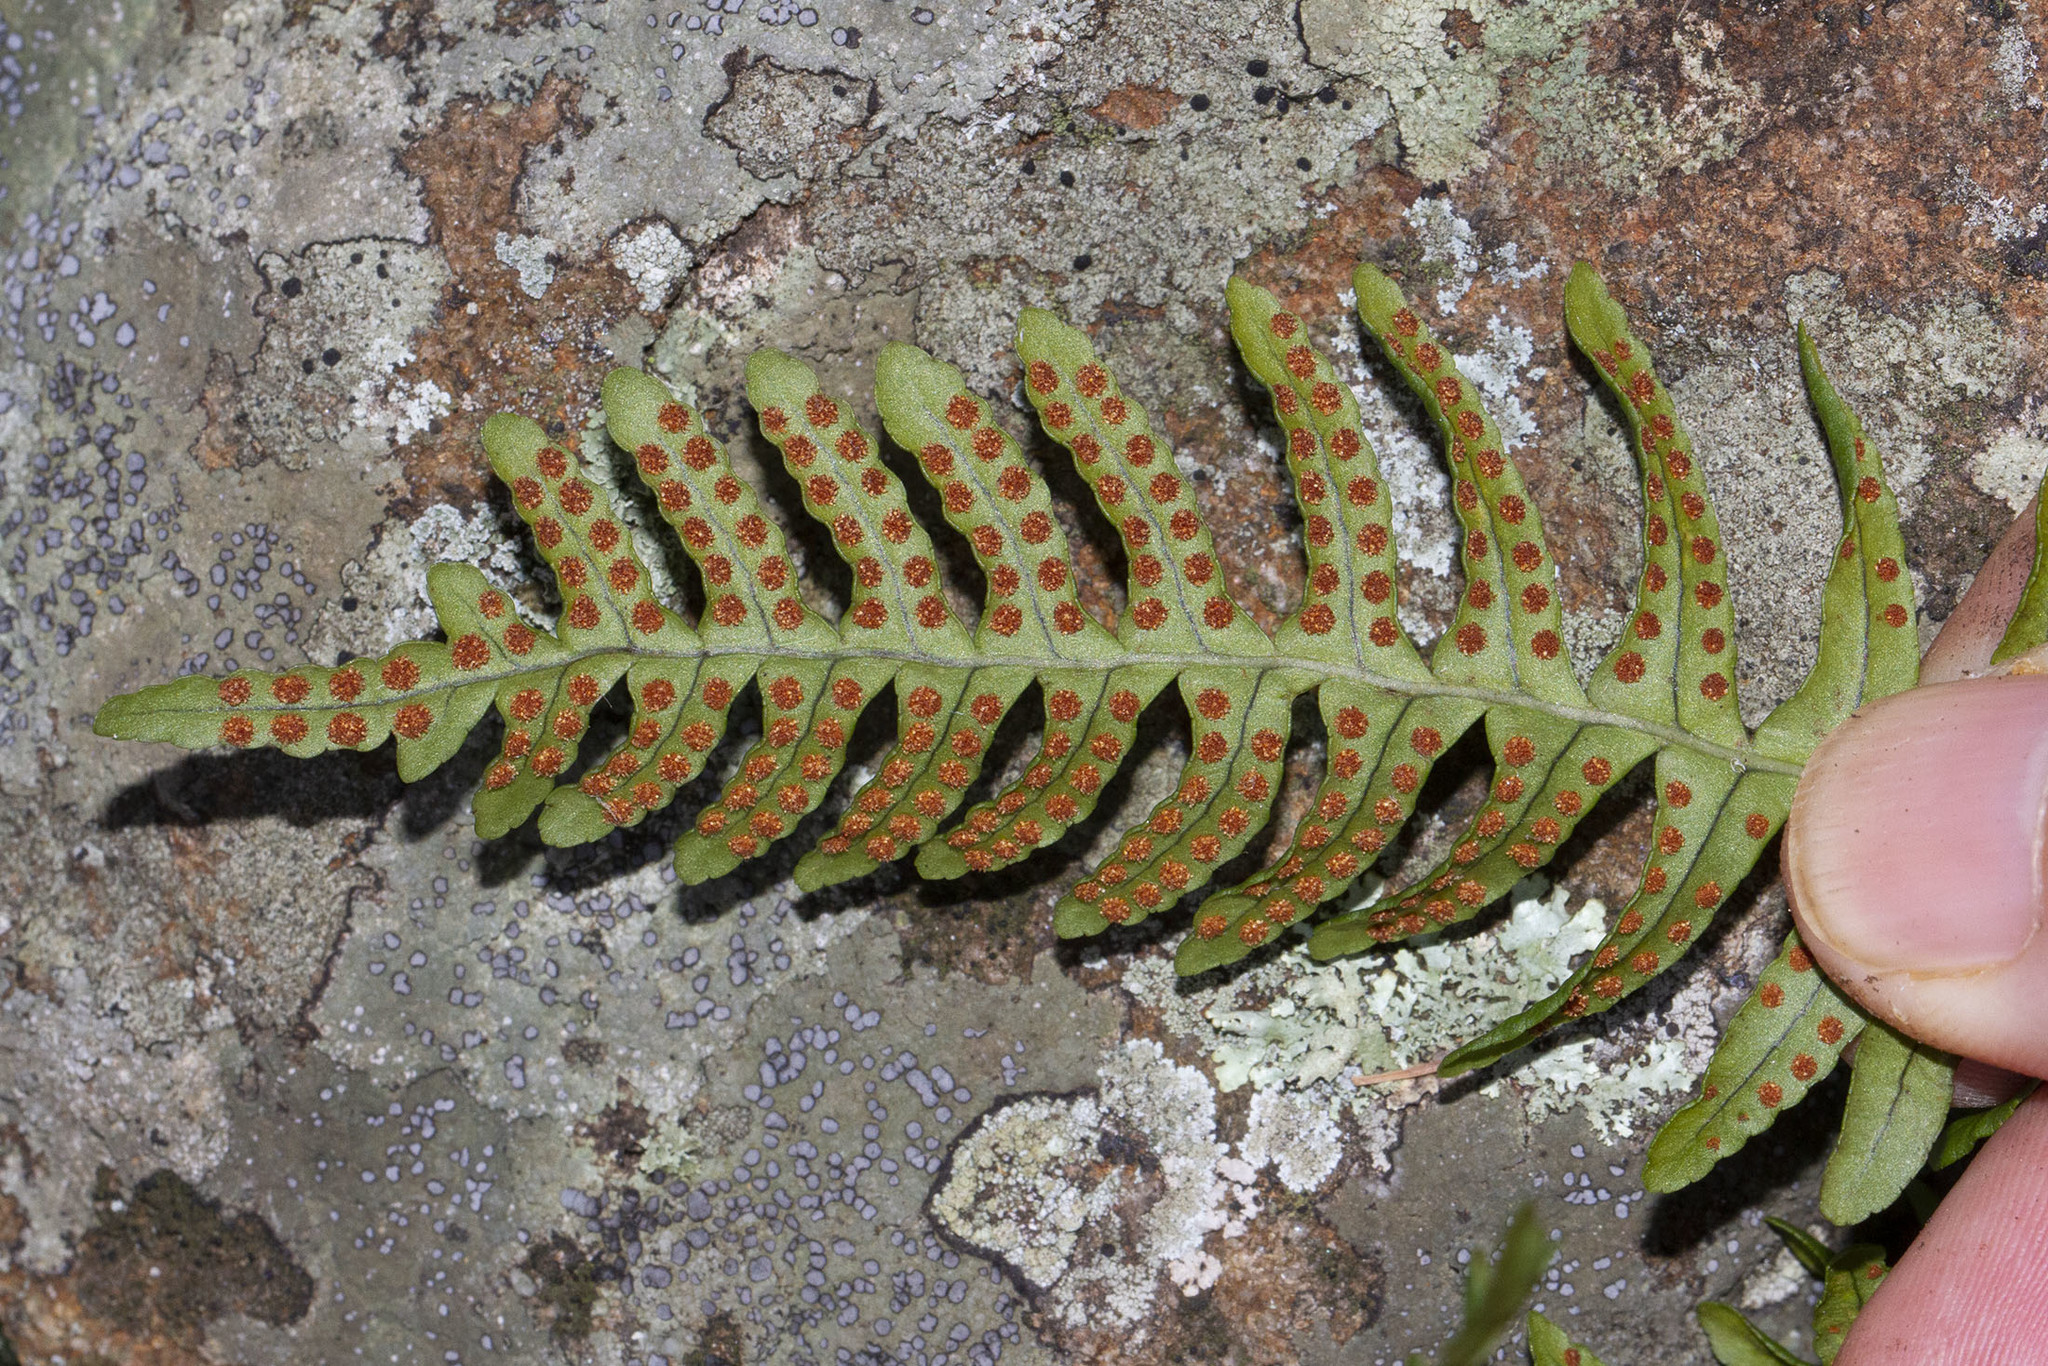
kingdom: Plantae
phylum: Tracheophyta
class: Polypodiopsida
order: Polypodiales
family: Polypodiaceae
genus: Polypodium
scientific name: Polypodium virginianum
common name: American wall fern
